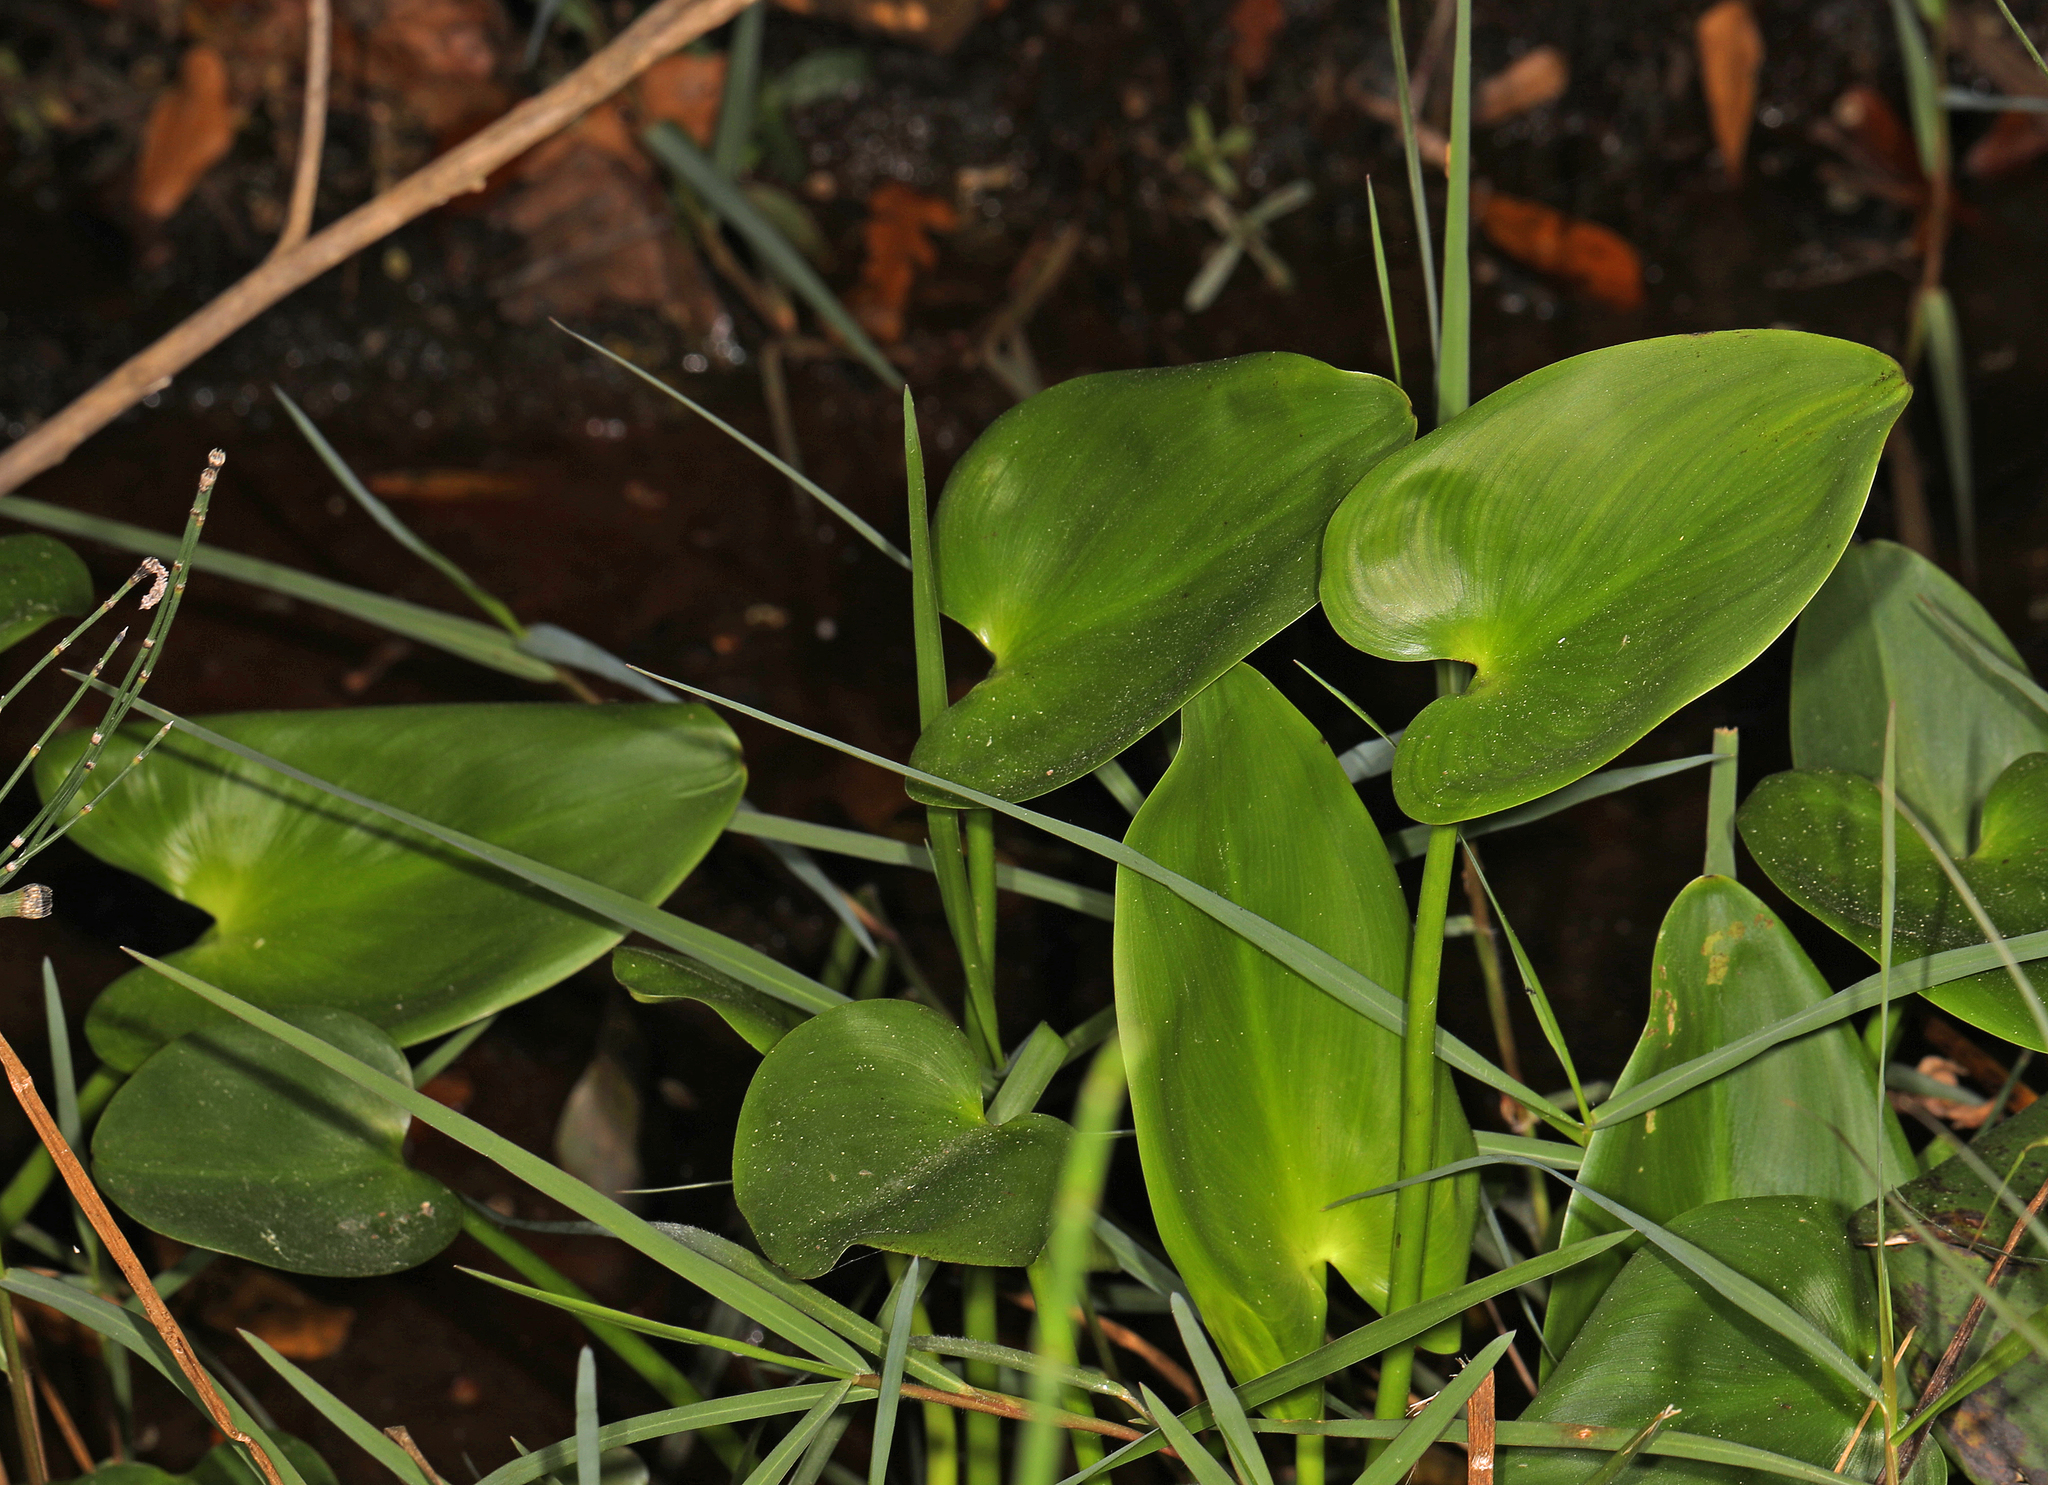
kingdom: Plantae
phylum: Tracheophyta
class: Liliopsida
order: Commelinales
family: Pontederiaceae
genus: Pontederia
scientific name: Pontederia cordata
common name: Pickerelweed
